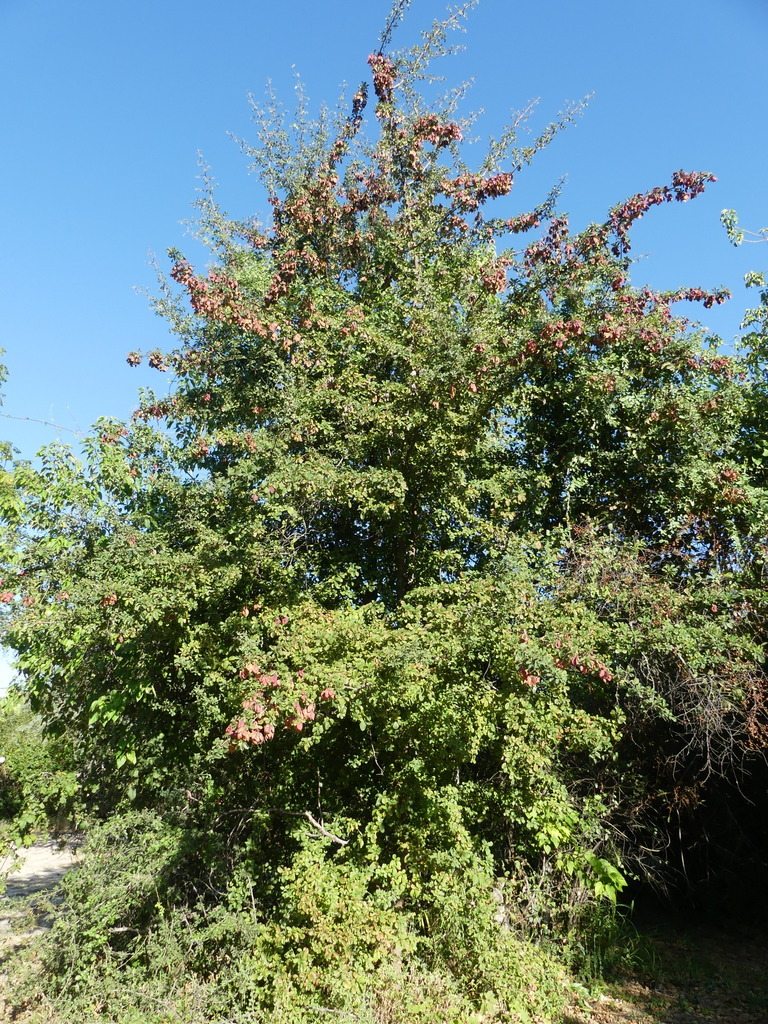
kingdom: Plantae
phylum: Tracheophyta
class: Magnoliopsida
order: Myrtales
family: Combretaceae
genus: Terminalia
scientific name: Terminalia prunioides
